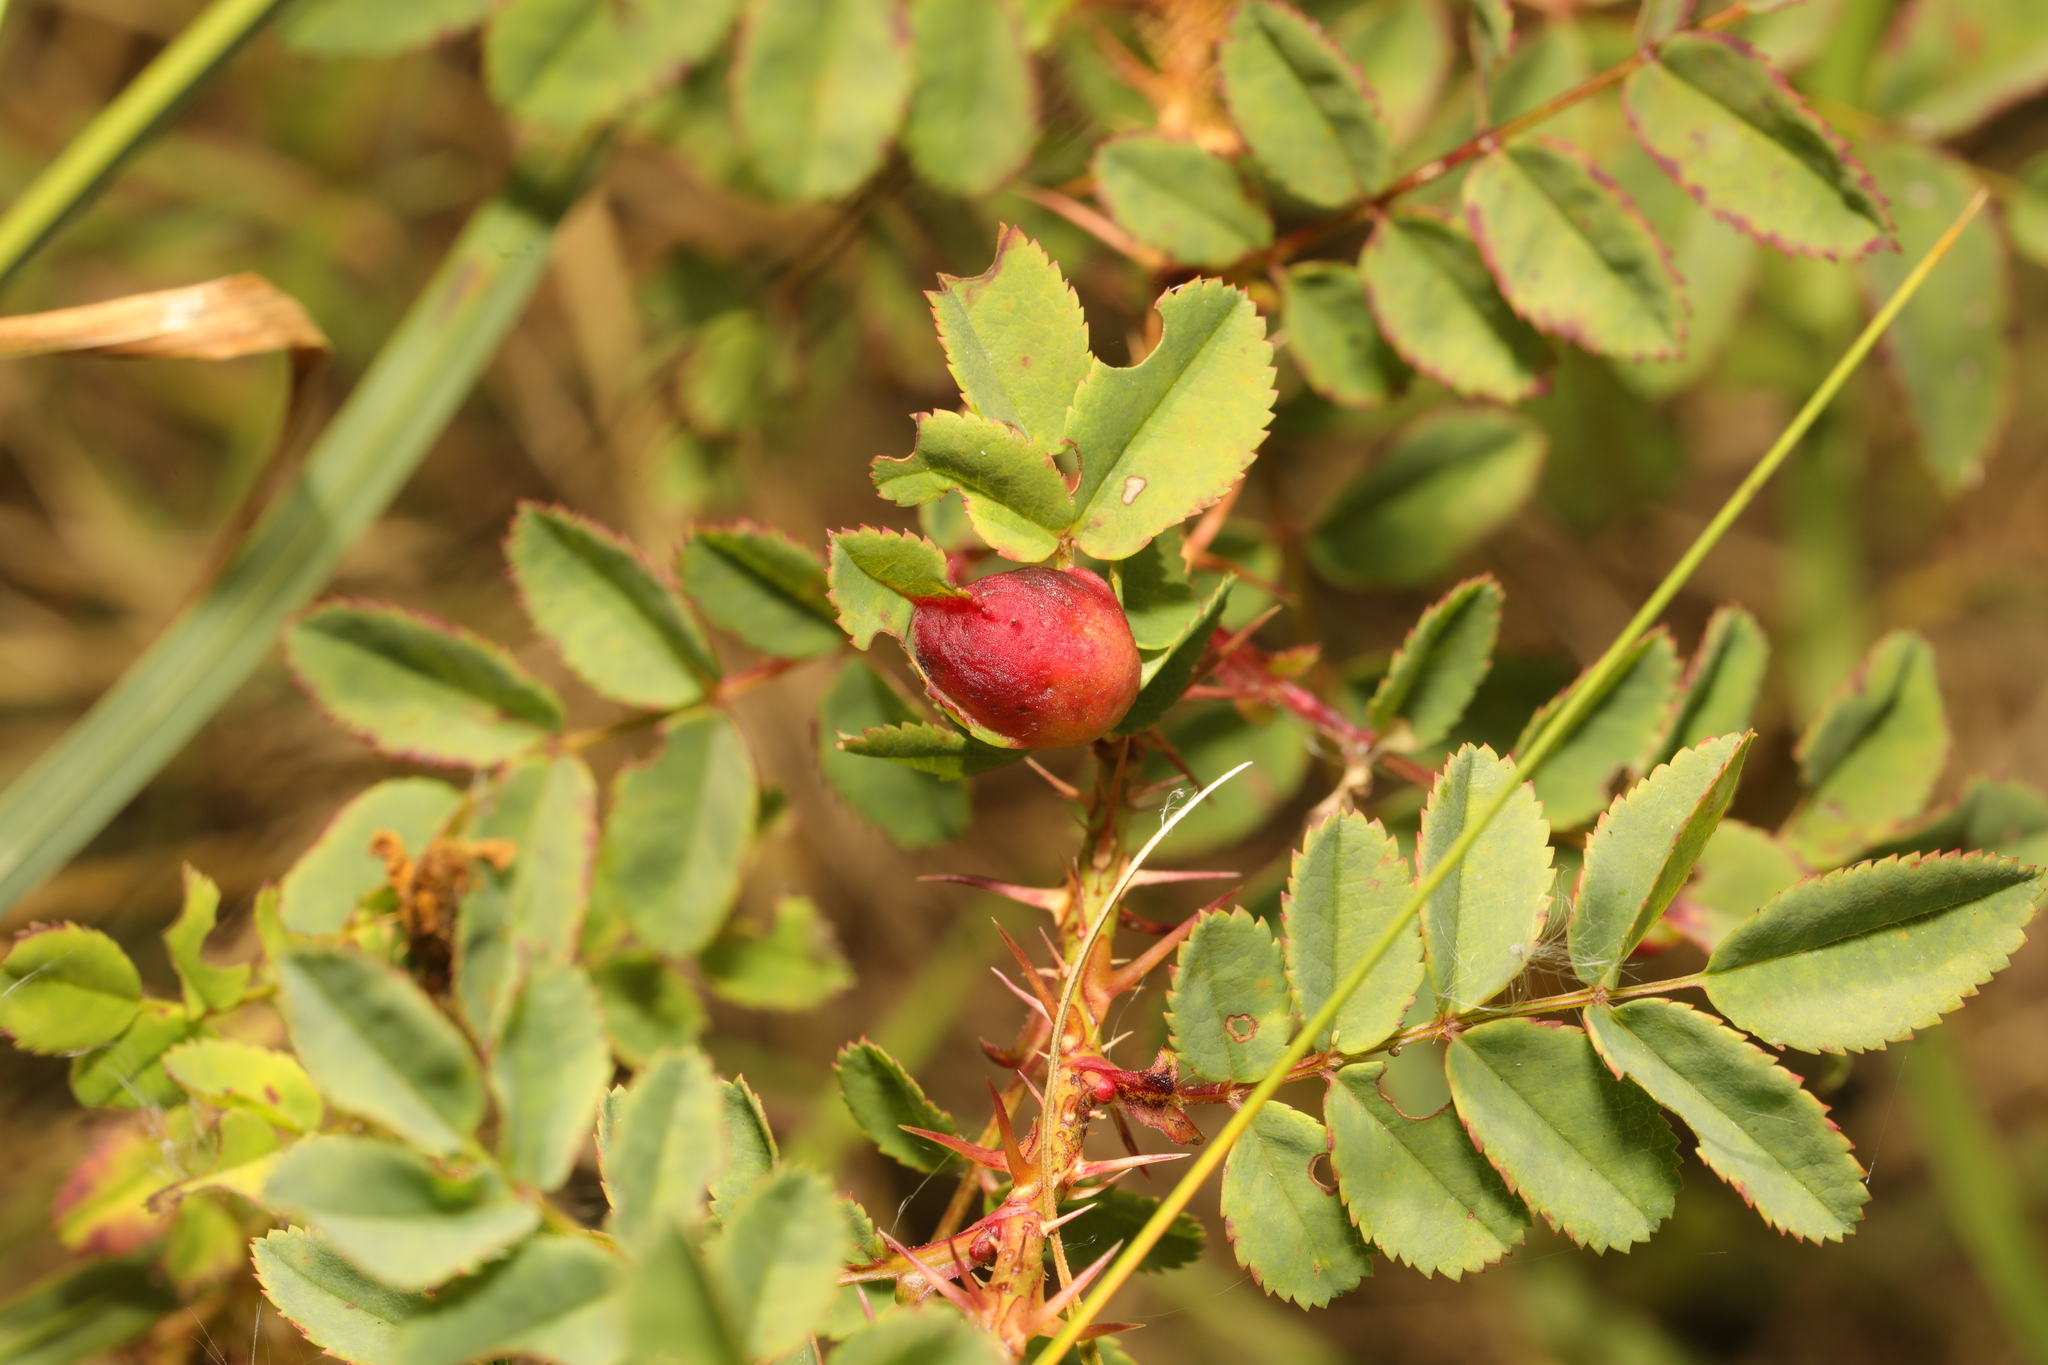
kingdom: Animalia
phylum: Arthropoda
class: Insecta
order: Hymenoptera
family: Cynipidae
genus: Diplolepis
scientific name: Diplolepis spinosissimae
